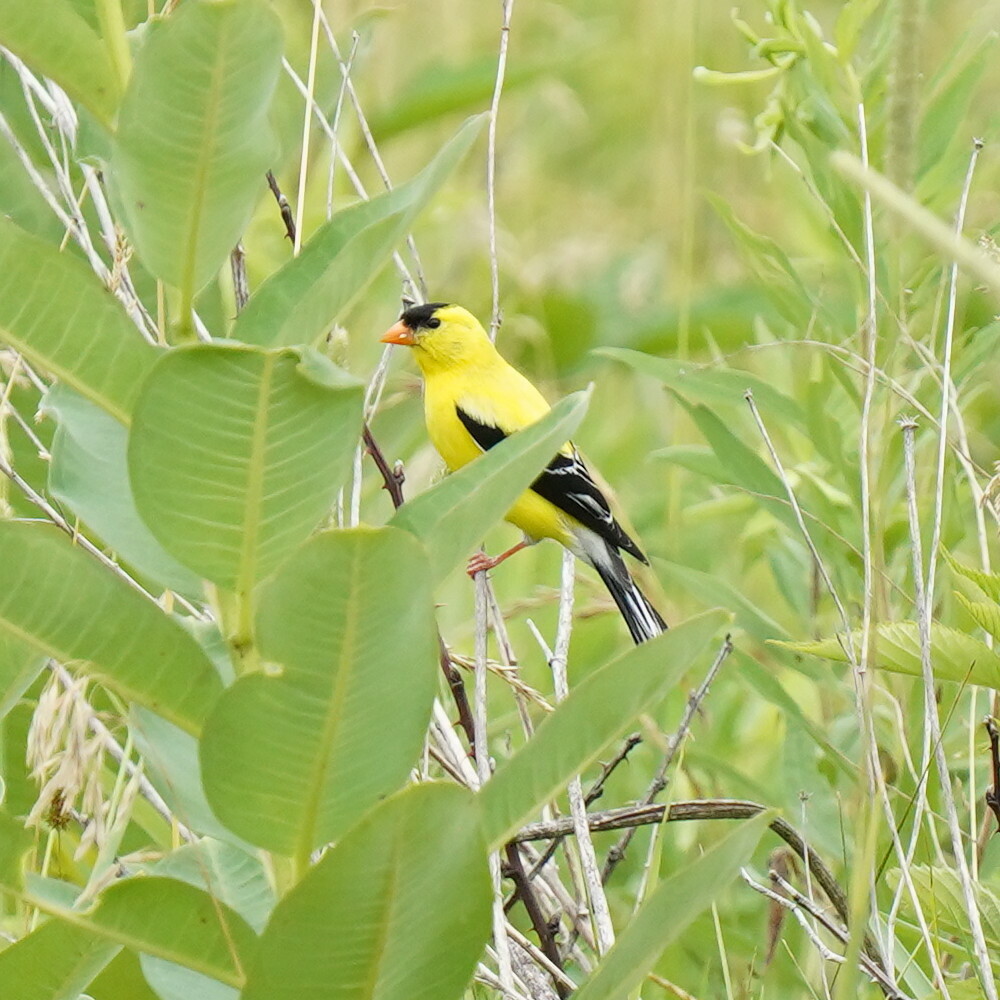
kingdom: Animalia
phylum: Chordata
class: Aves
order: Passeriformes
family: Fringillidae
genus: Spinus
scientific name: Spinus tristis
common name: American goldfinch
